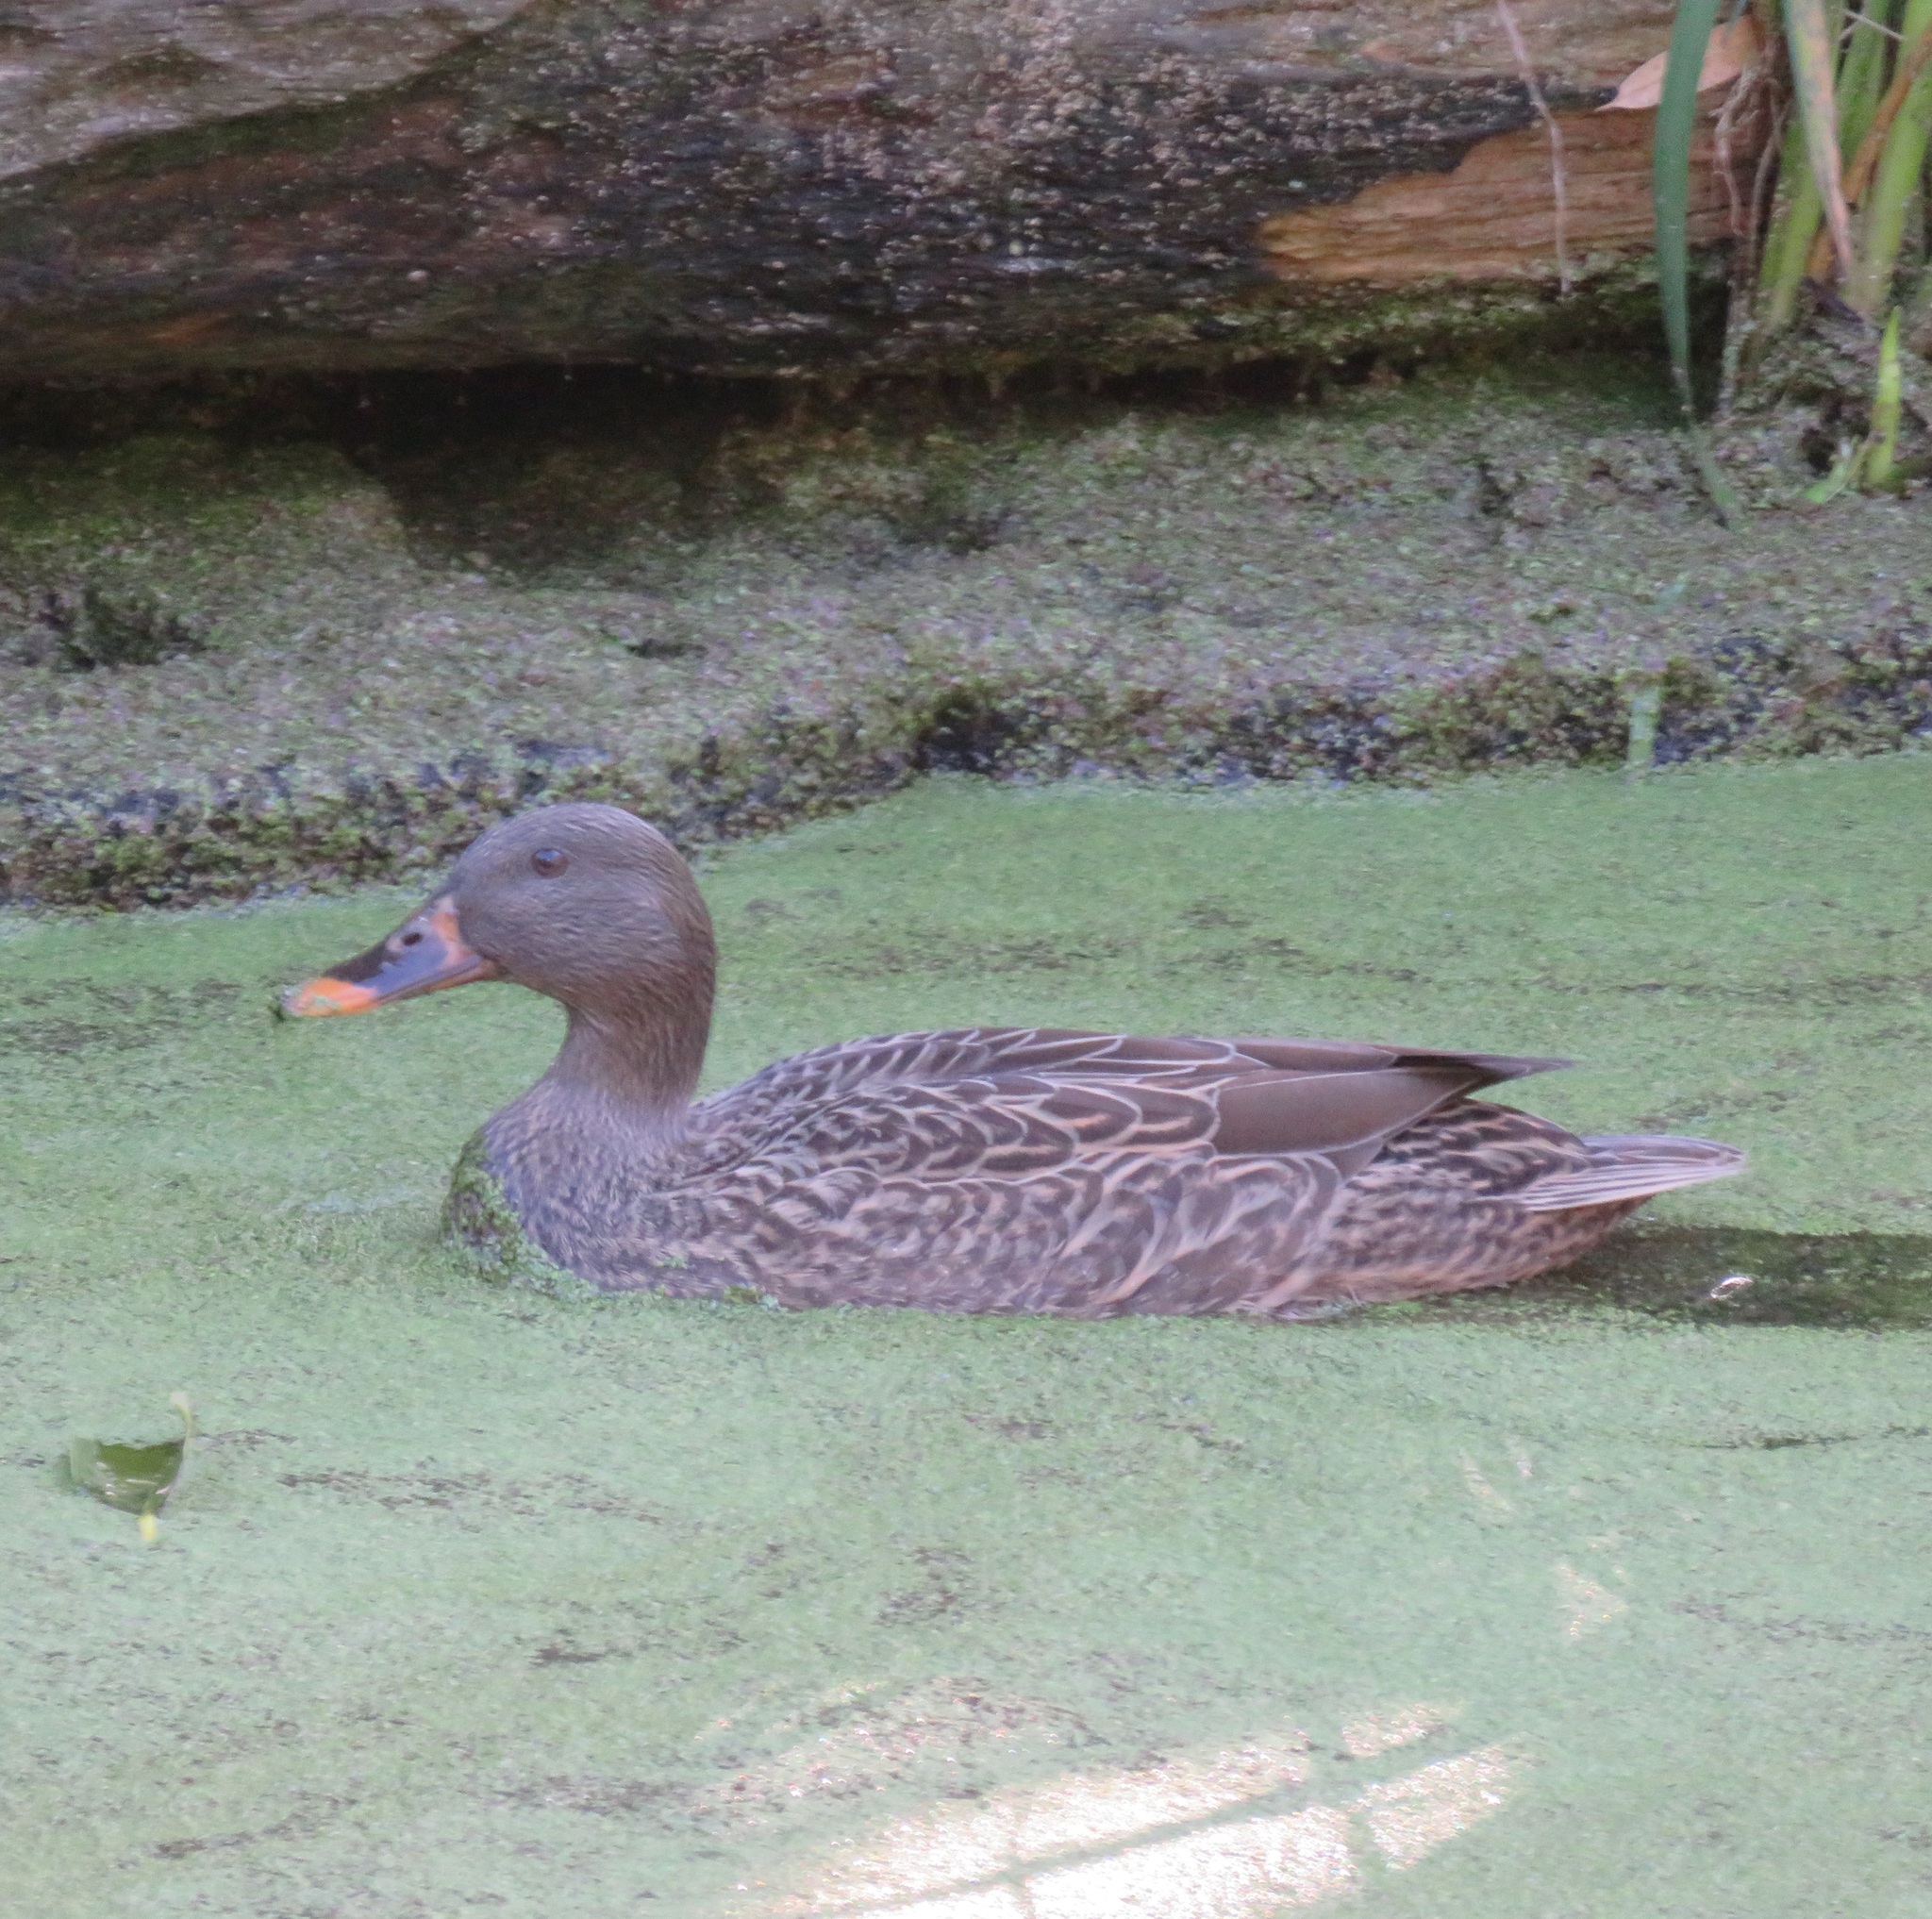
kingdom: Animalia
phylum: Chordata
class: Aves
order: Anseriformes
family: Anatidae
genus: Anas
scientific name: Anas platyrhynchos
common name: Mallard
